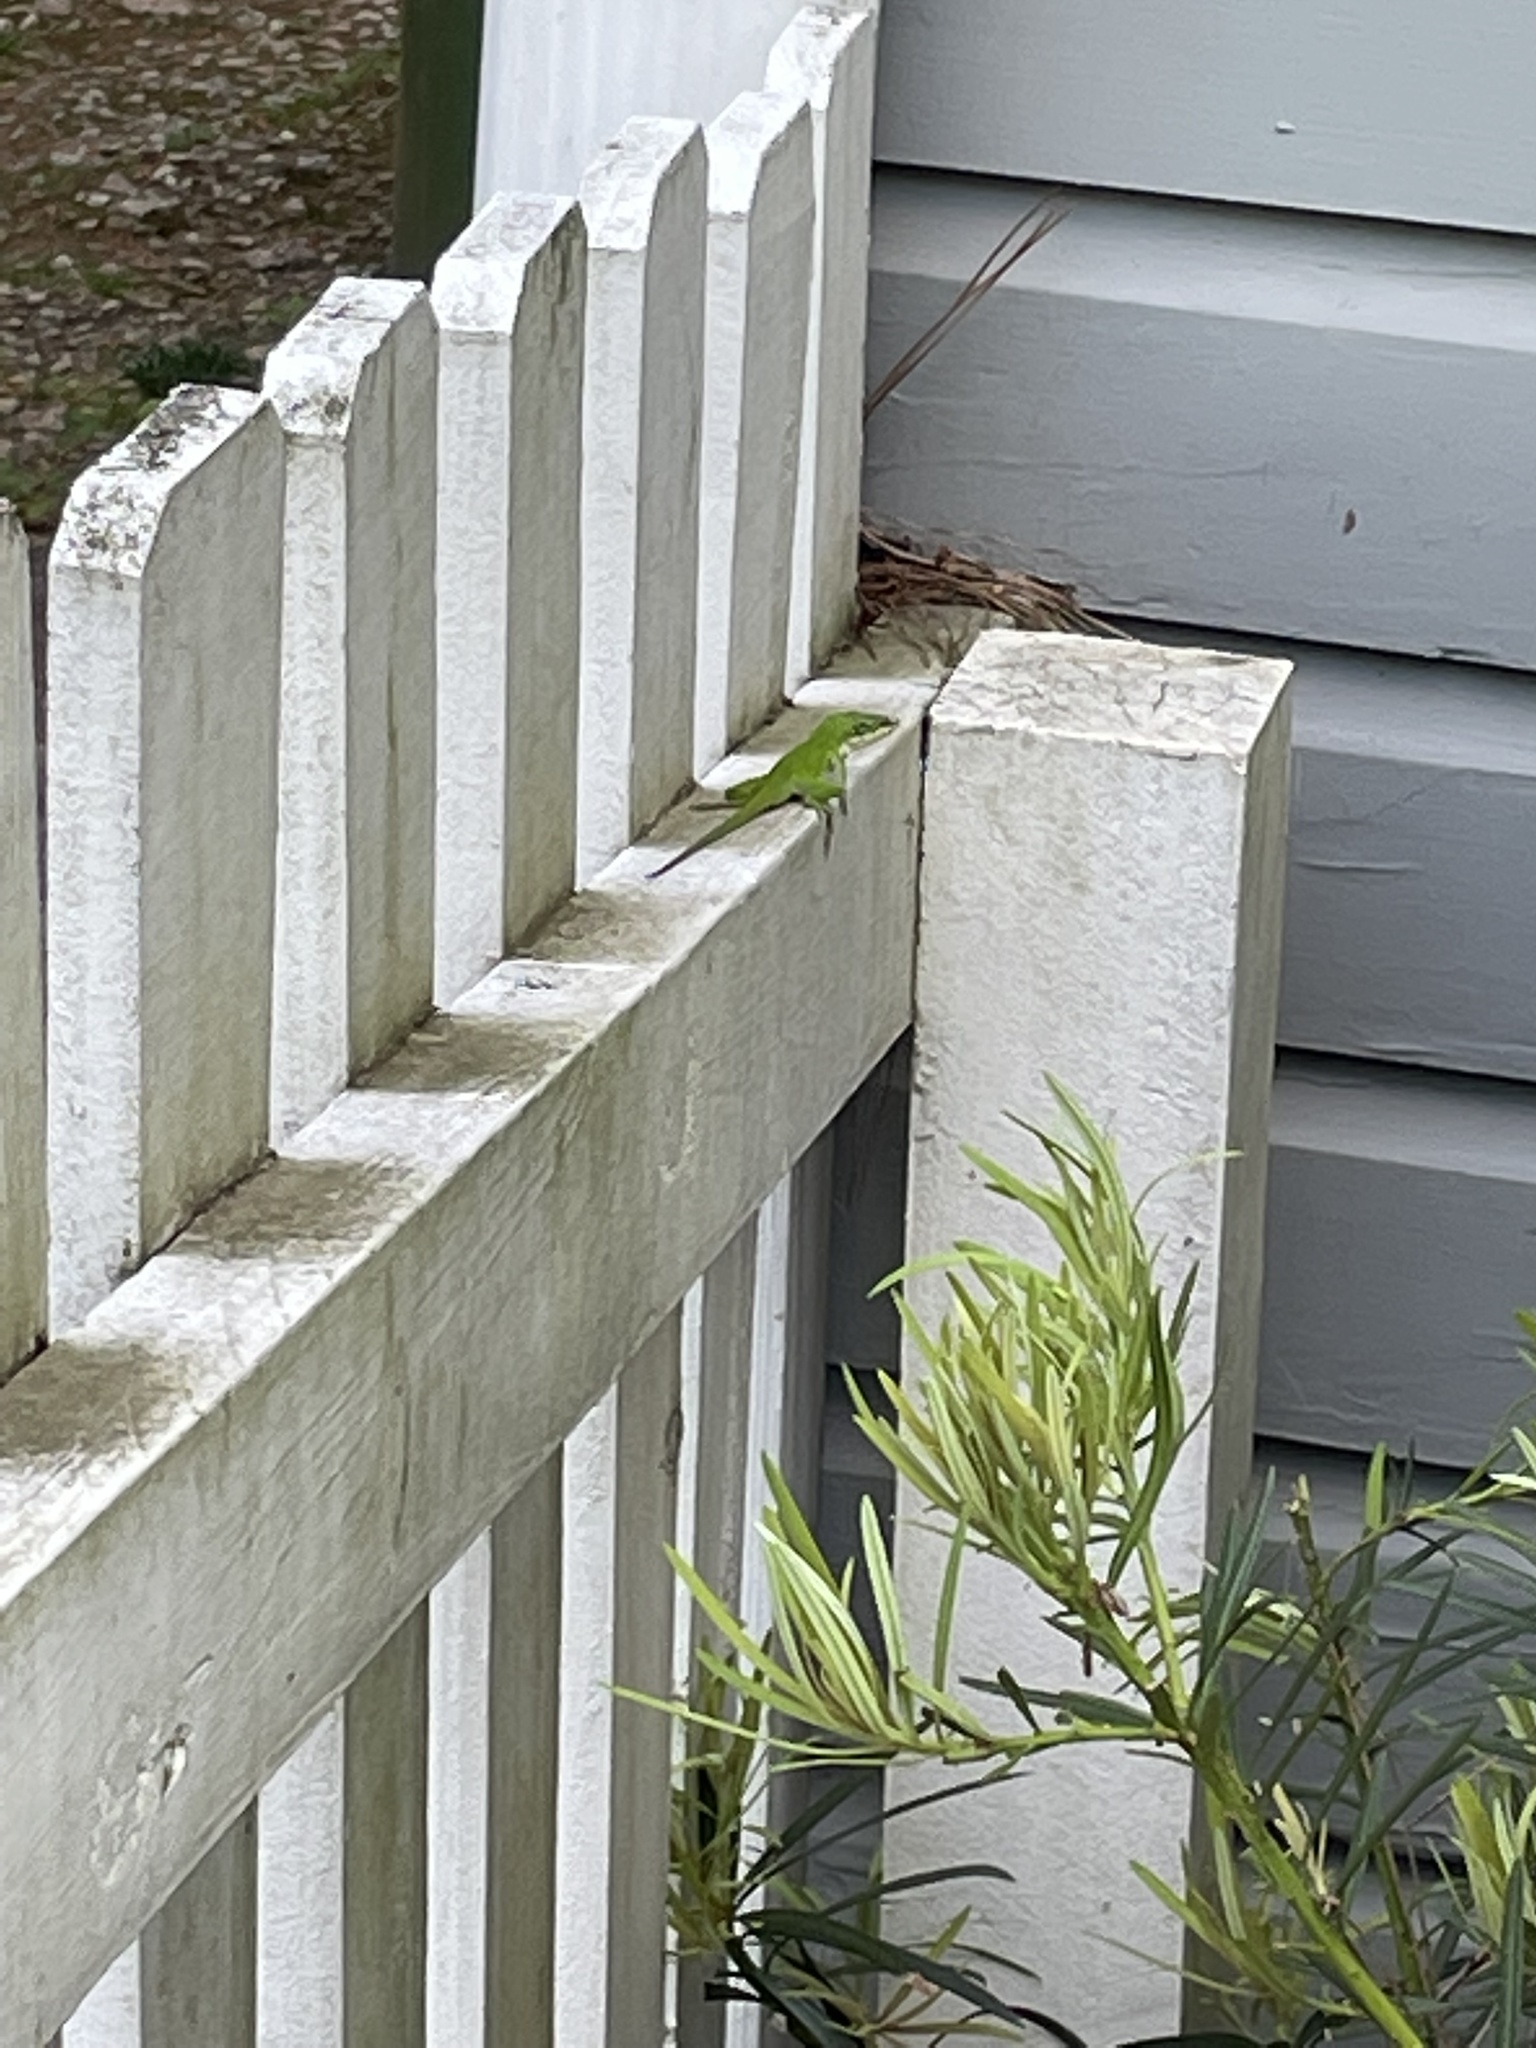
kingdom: Animalia
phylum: Chordata
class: Squamata
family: Dactyloidae
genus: Anolis
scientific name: Anolis carolinensis
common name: Green anole
